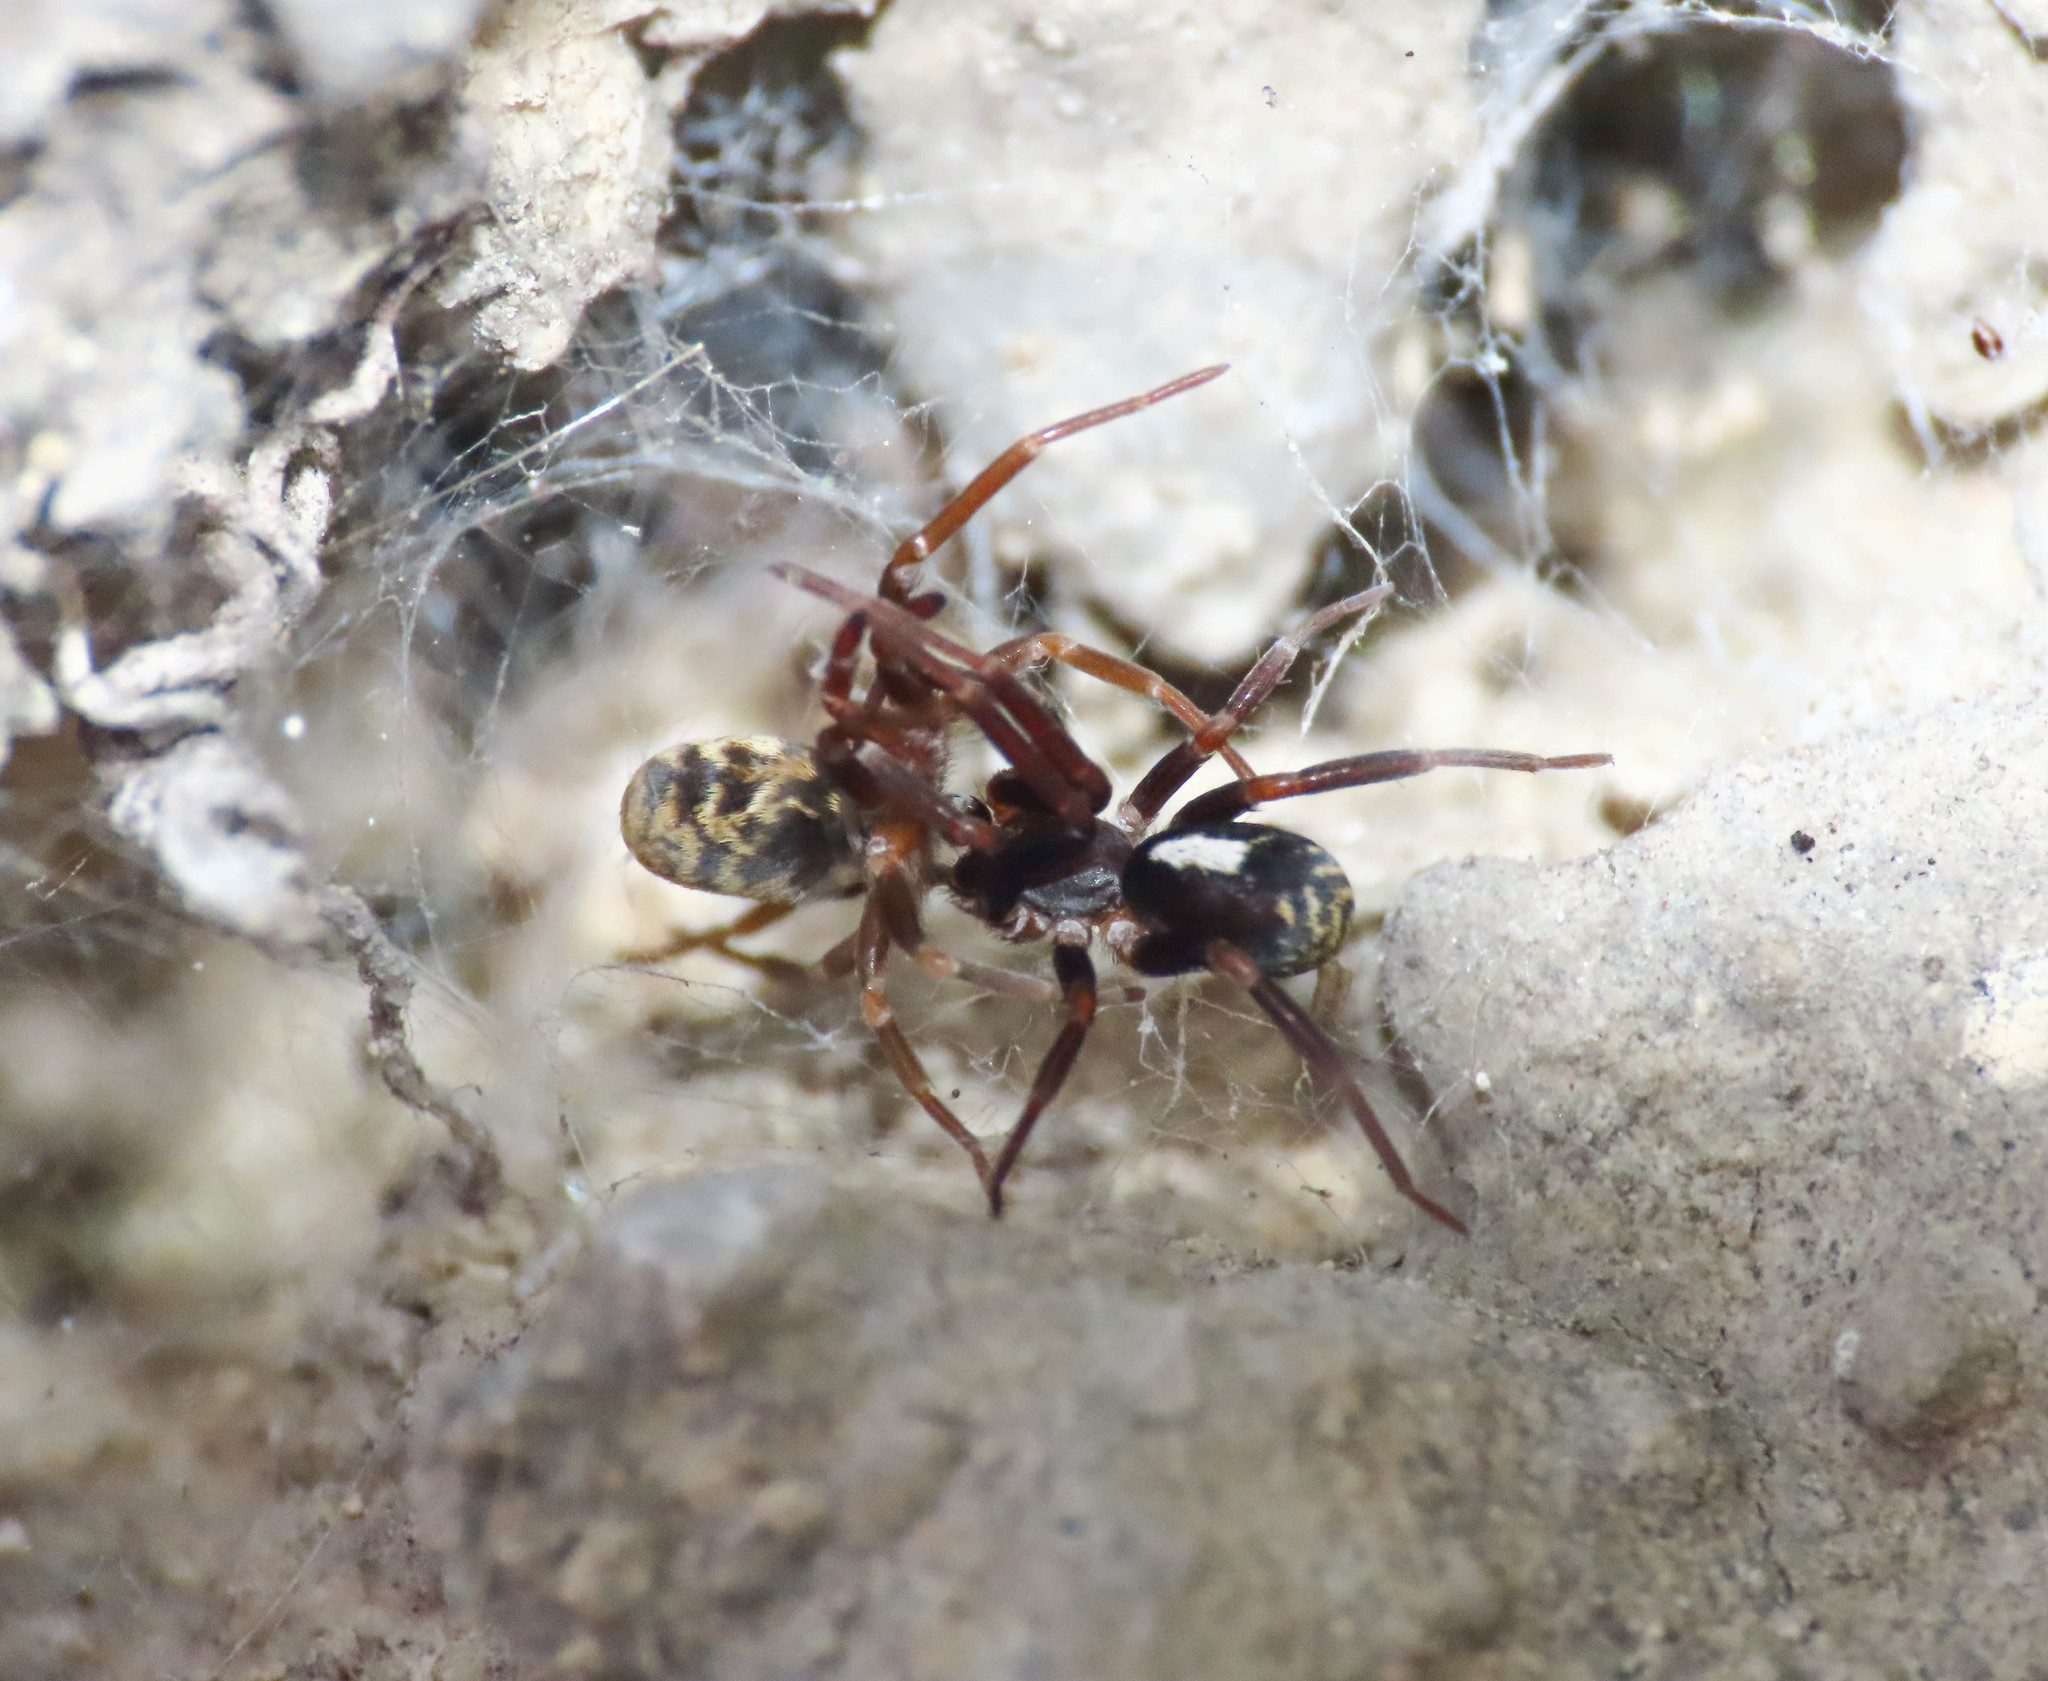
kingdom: Animalia
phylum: Arthropoda
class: Arachnida
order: Araneae
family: Filistatidae
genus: Pritha
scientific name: Pritha nana
